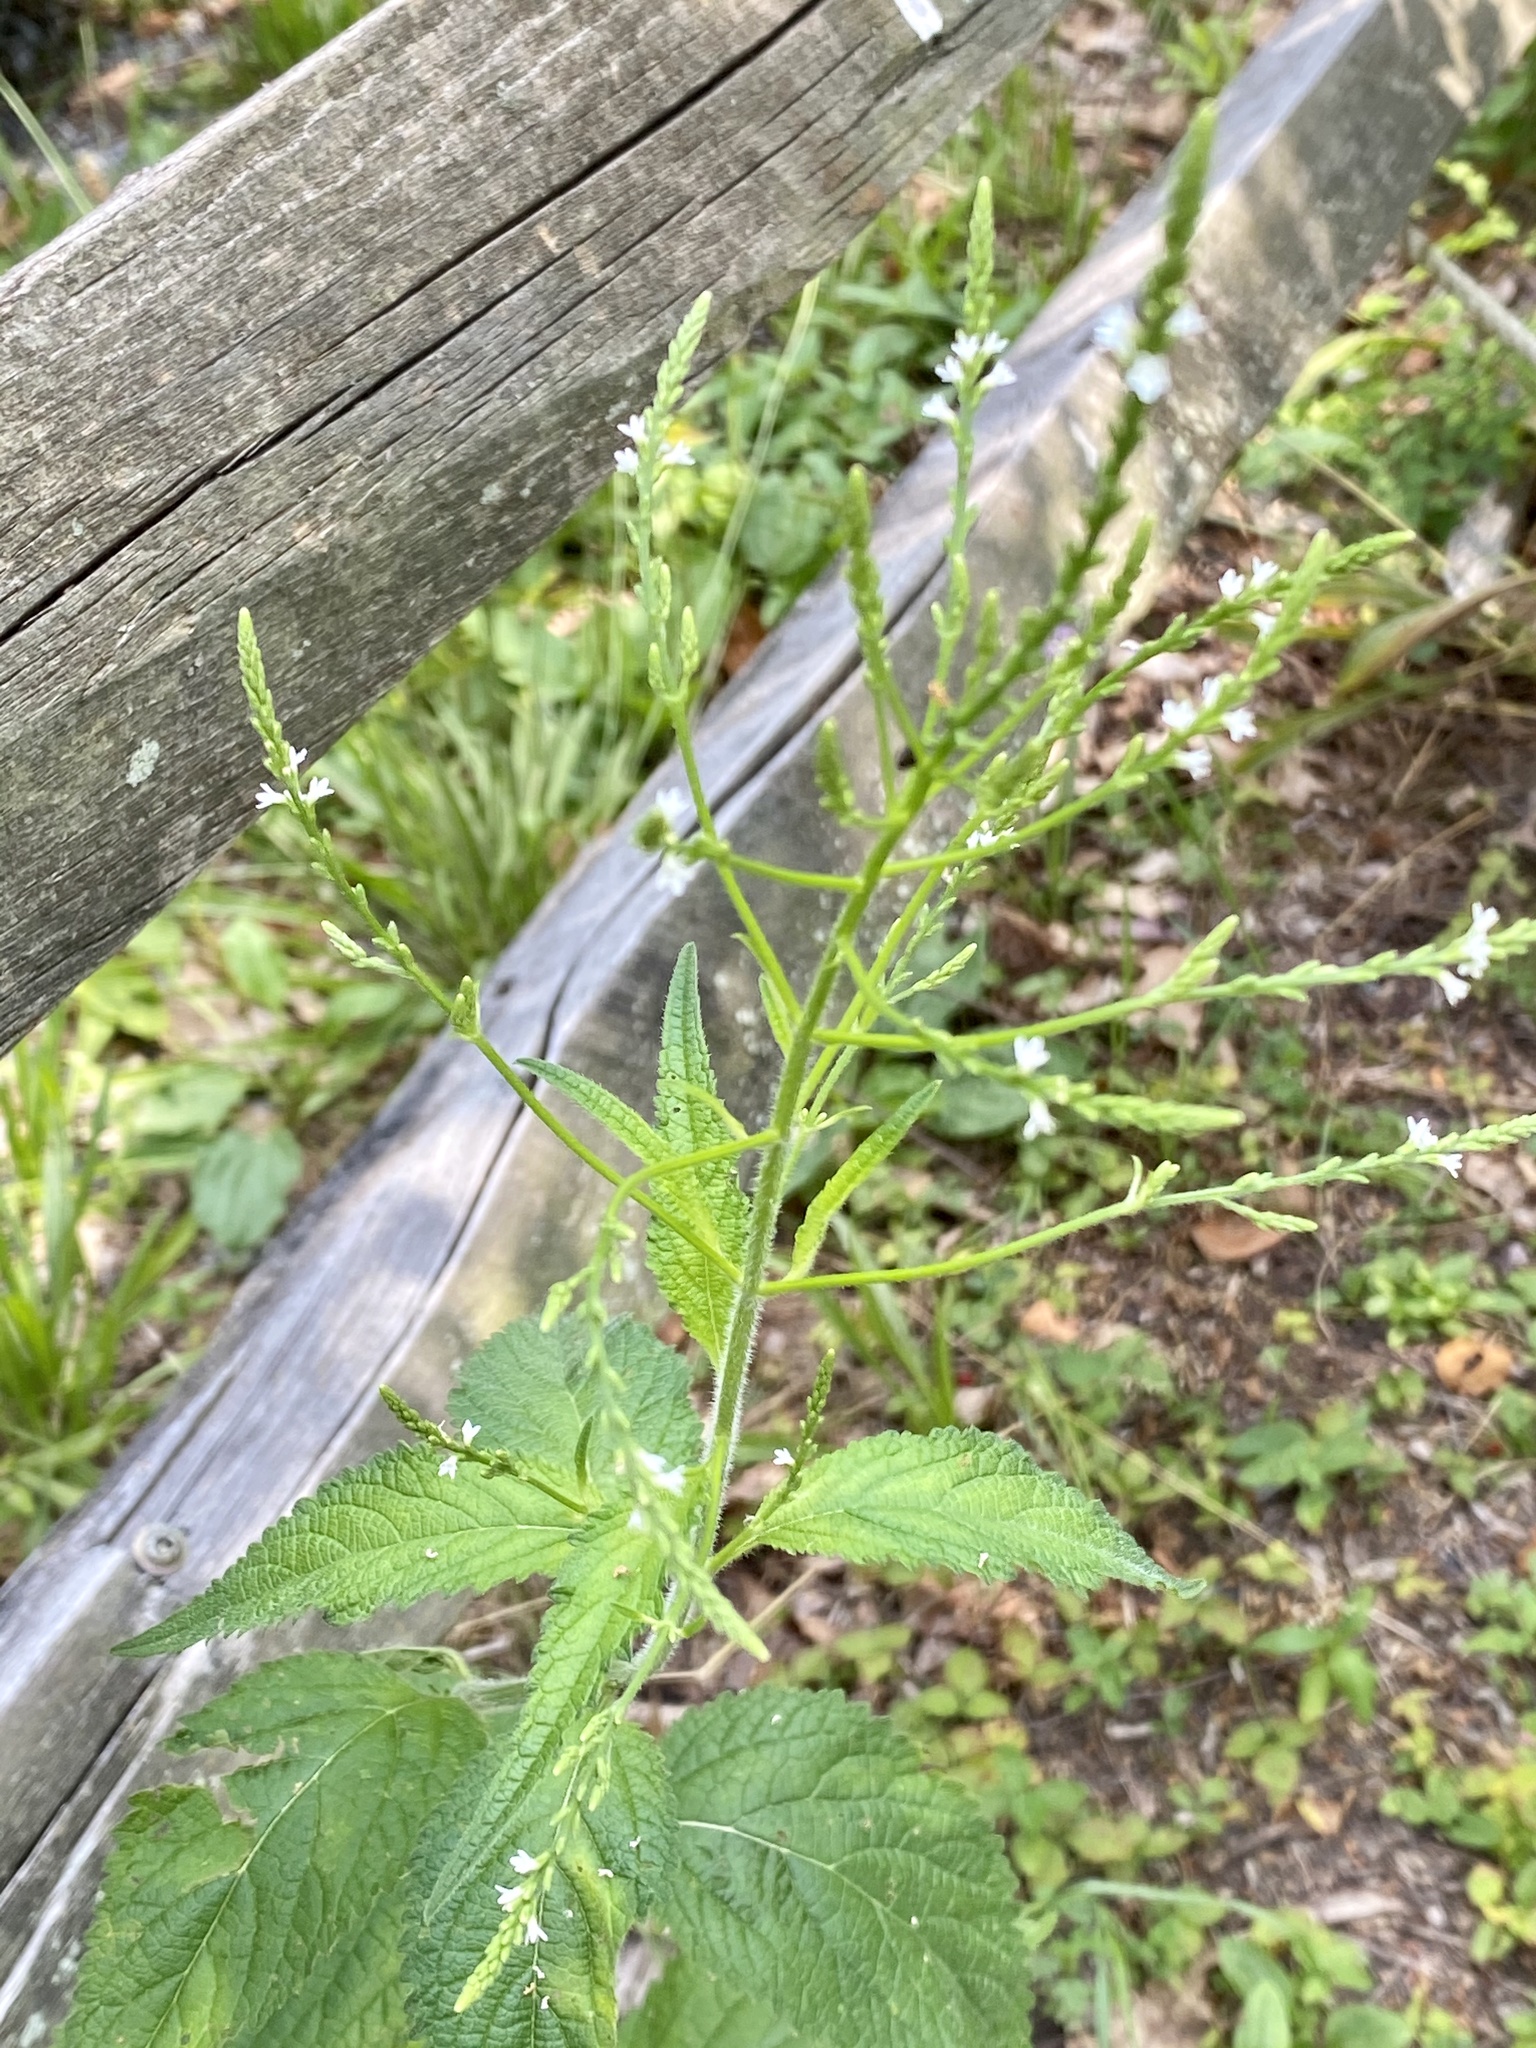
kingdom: Plantae
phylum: Tracheophyta
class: Magnoliopsida
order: Lamiales
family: Verbenaceae
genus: Verbena
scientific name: Verbena urticifolia
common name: Nettle-leaved vervain
